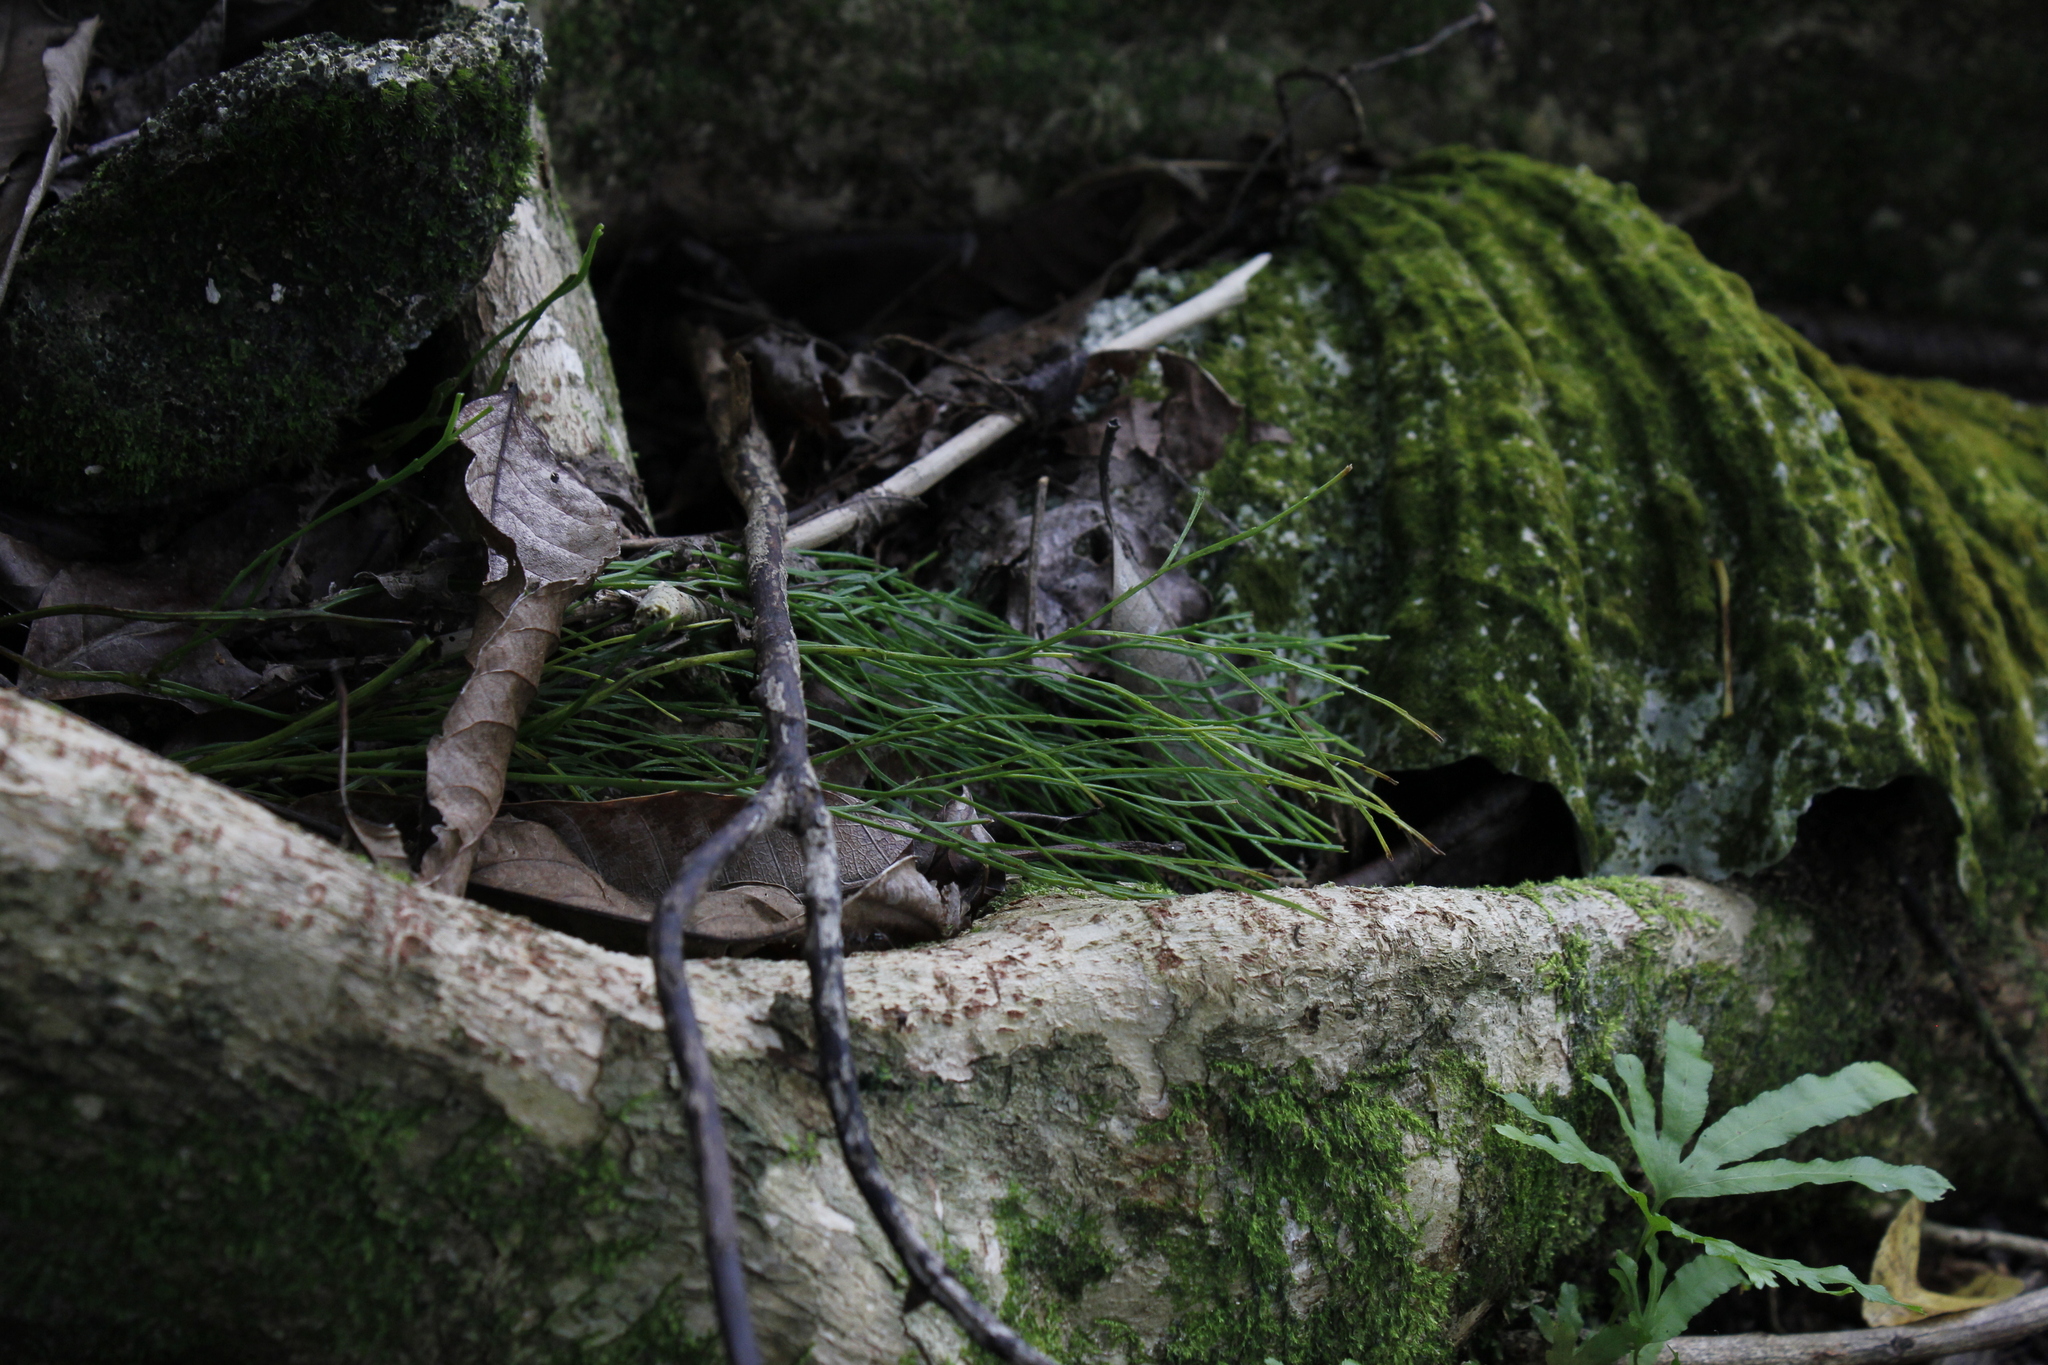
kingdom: Plantae
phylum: Tracheophyta
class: Polypodiopsida
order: Psilotales
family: Psilotaceae
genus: Psilotum
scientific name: Psilotum nudum
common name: Skeleton fork fern
